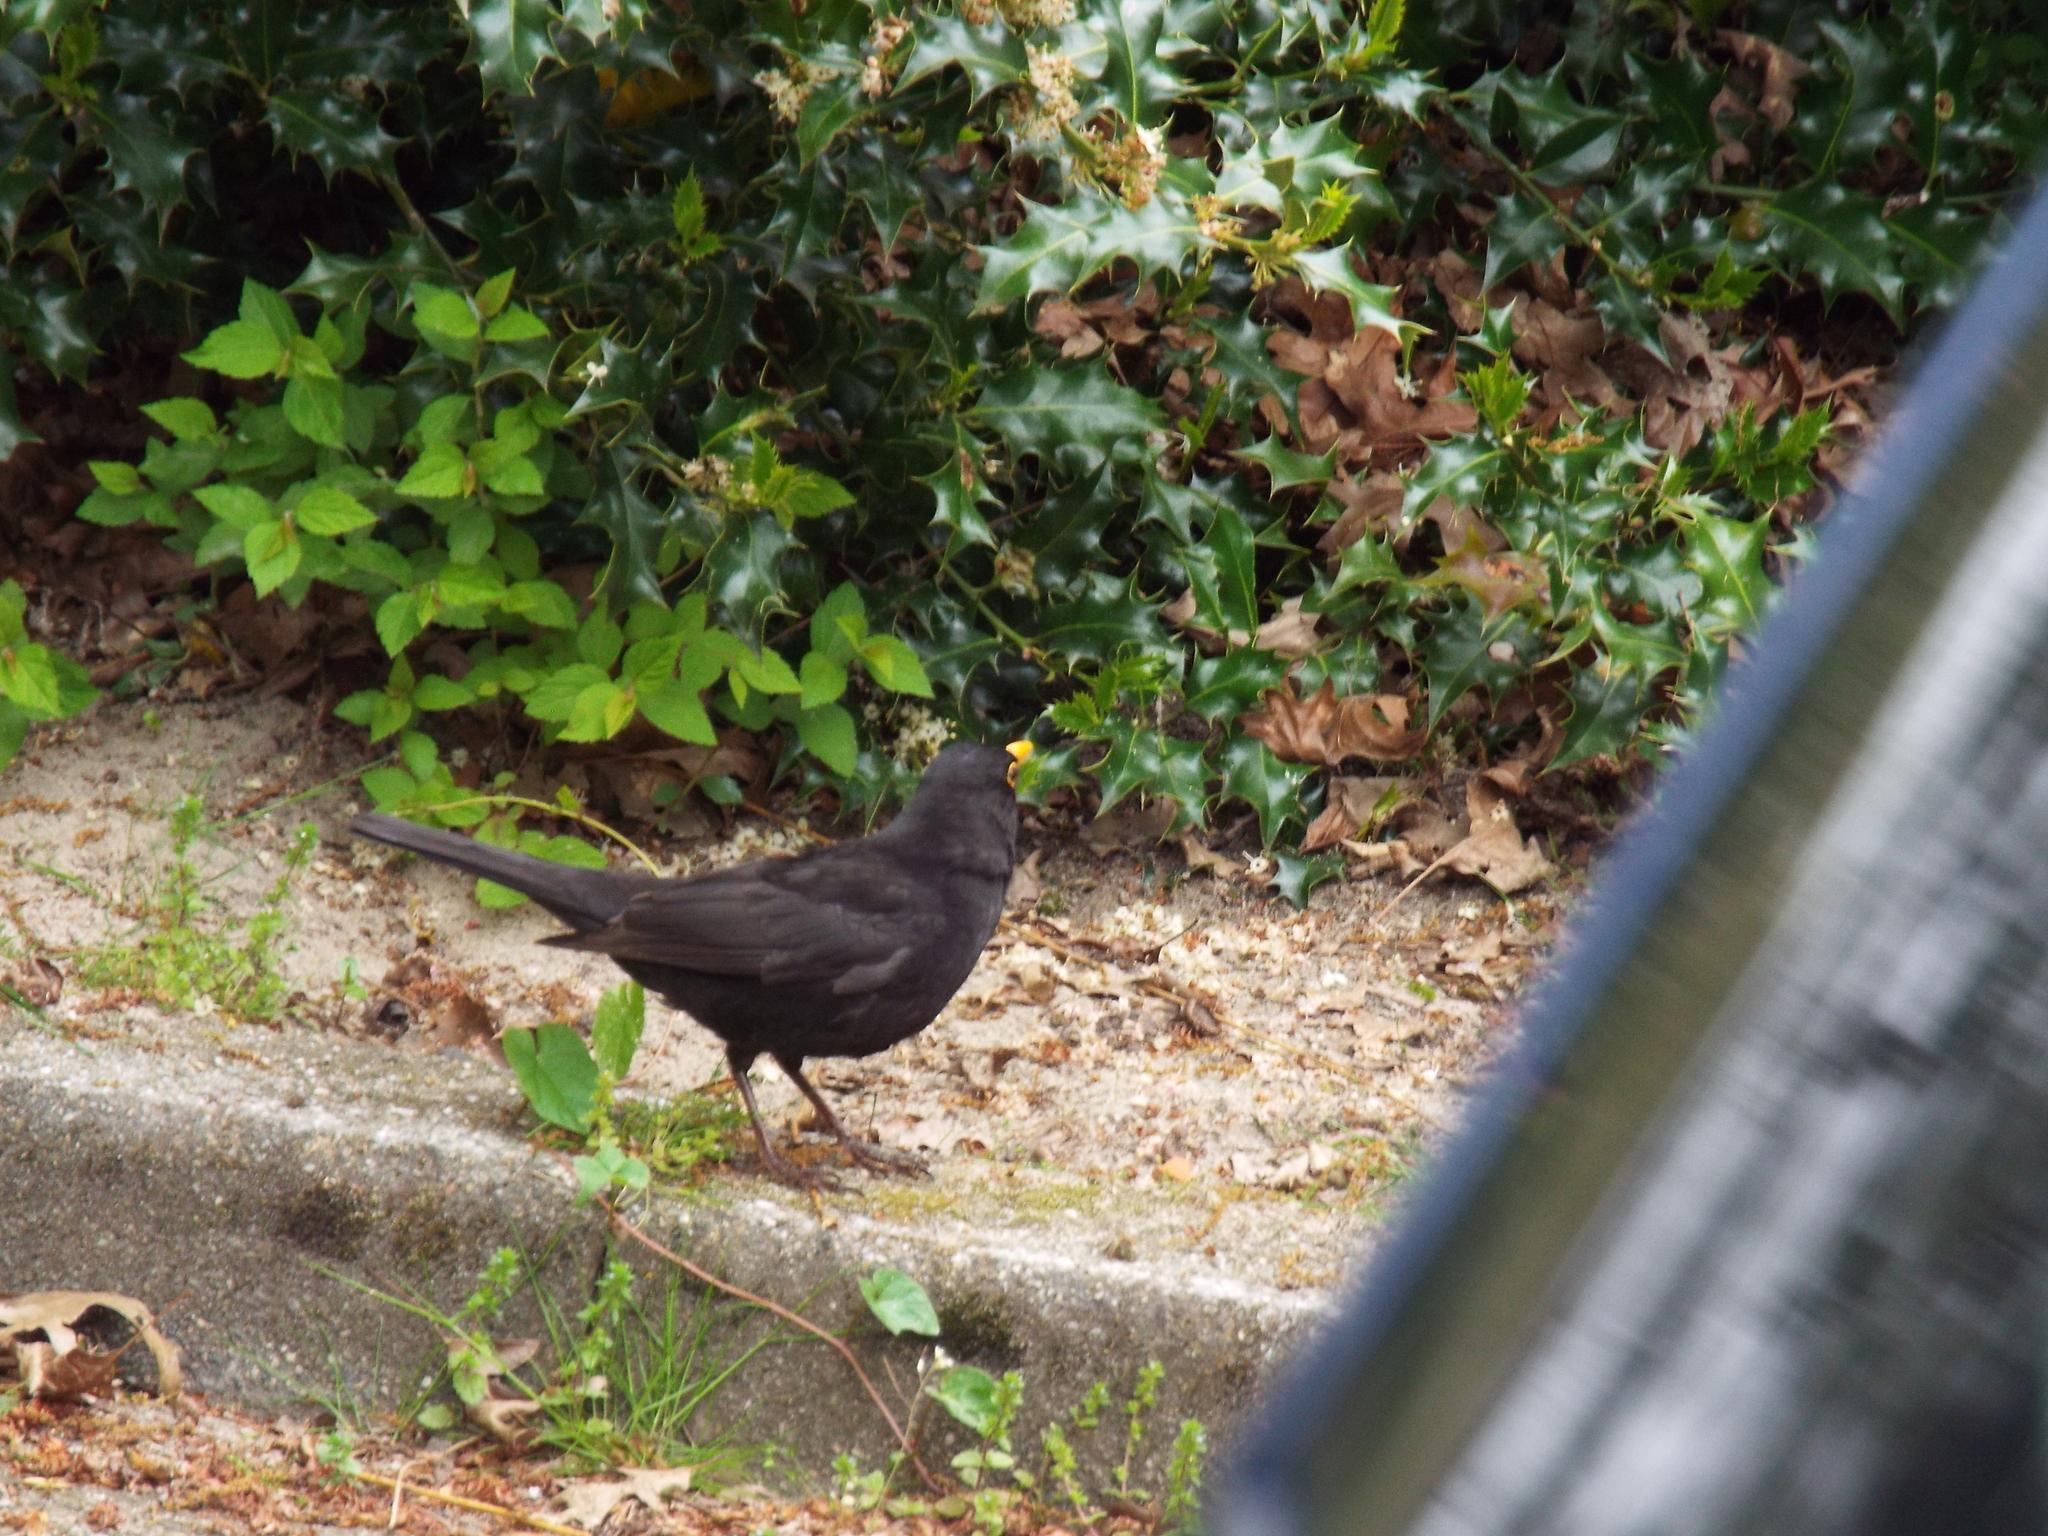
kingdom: Animalia
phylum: Chordata
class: Aves
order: Passeriformes
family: Turdidae
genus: Turdus
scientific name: Turdus merula
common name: Common blackbird
